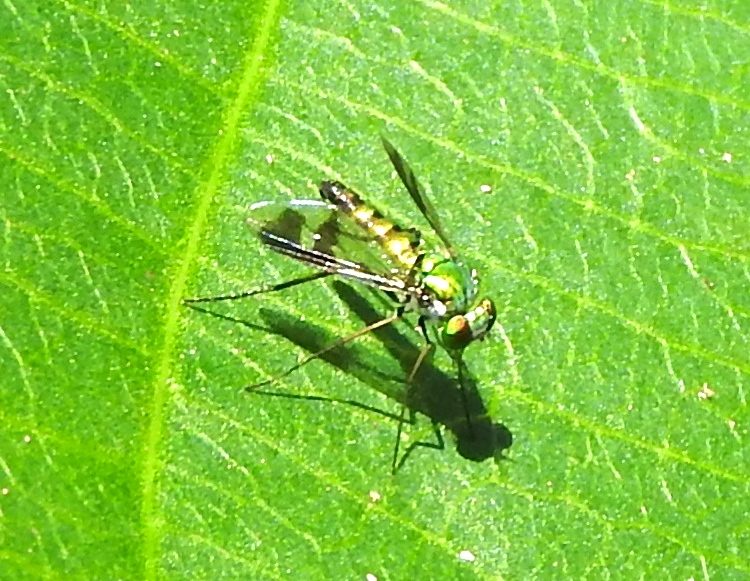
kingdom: Animalia
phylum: Arthropoda
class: Insecta
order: Diptera
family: Dolichopodidae
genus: Condylostylus
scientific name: Condylostylus
